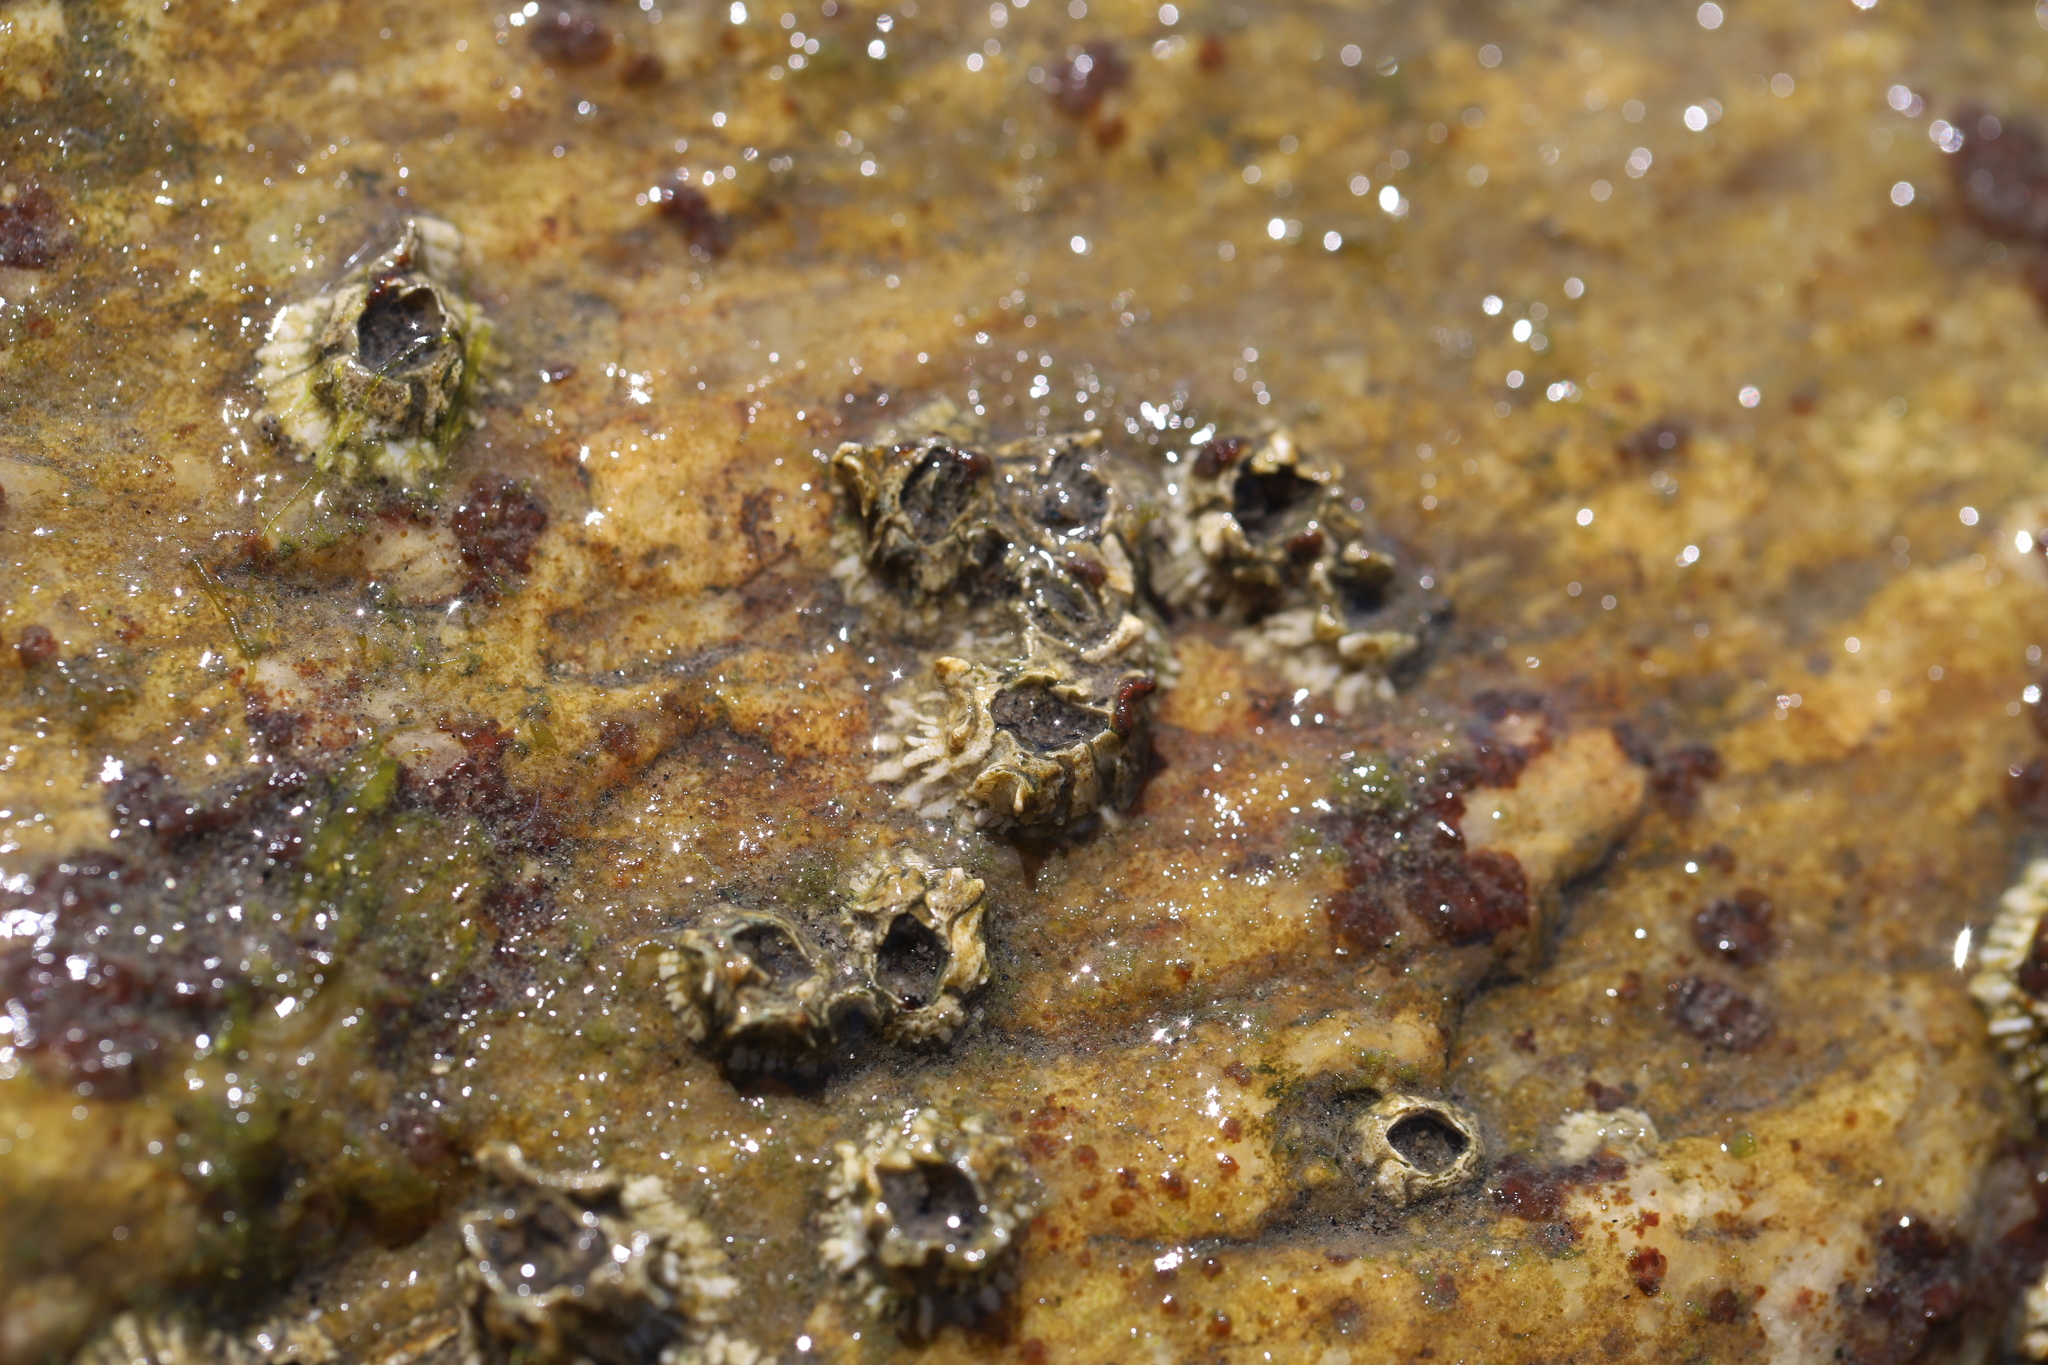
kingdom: Animalia
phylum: Arthropoda
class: Maxillopoda
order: Sessilia
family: Archaeobalanidae
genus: Semibalanus
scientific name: Semibalanus balanoides
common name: Acorn barnacle
